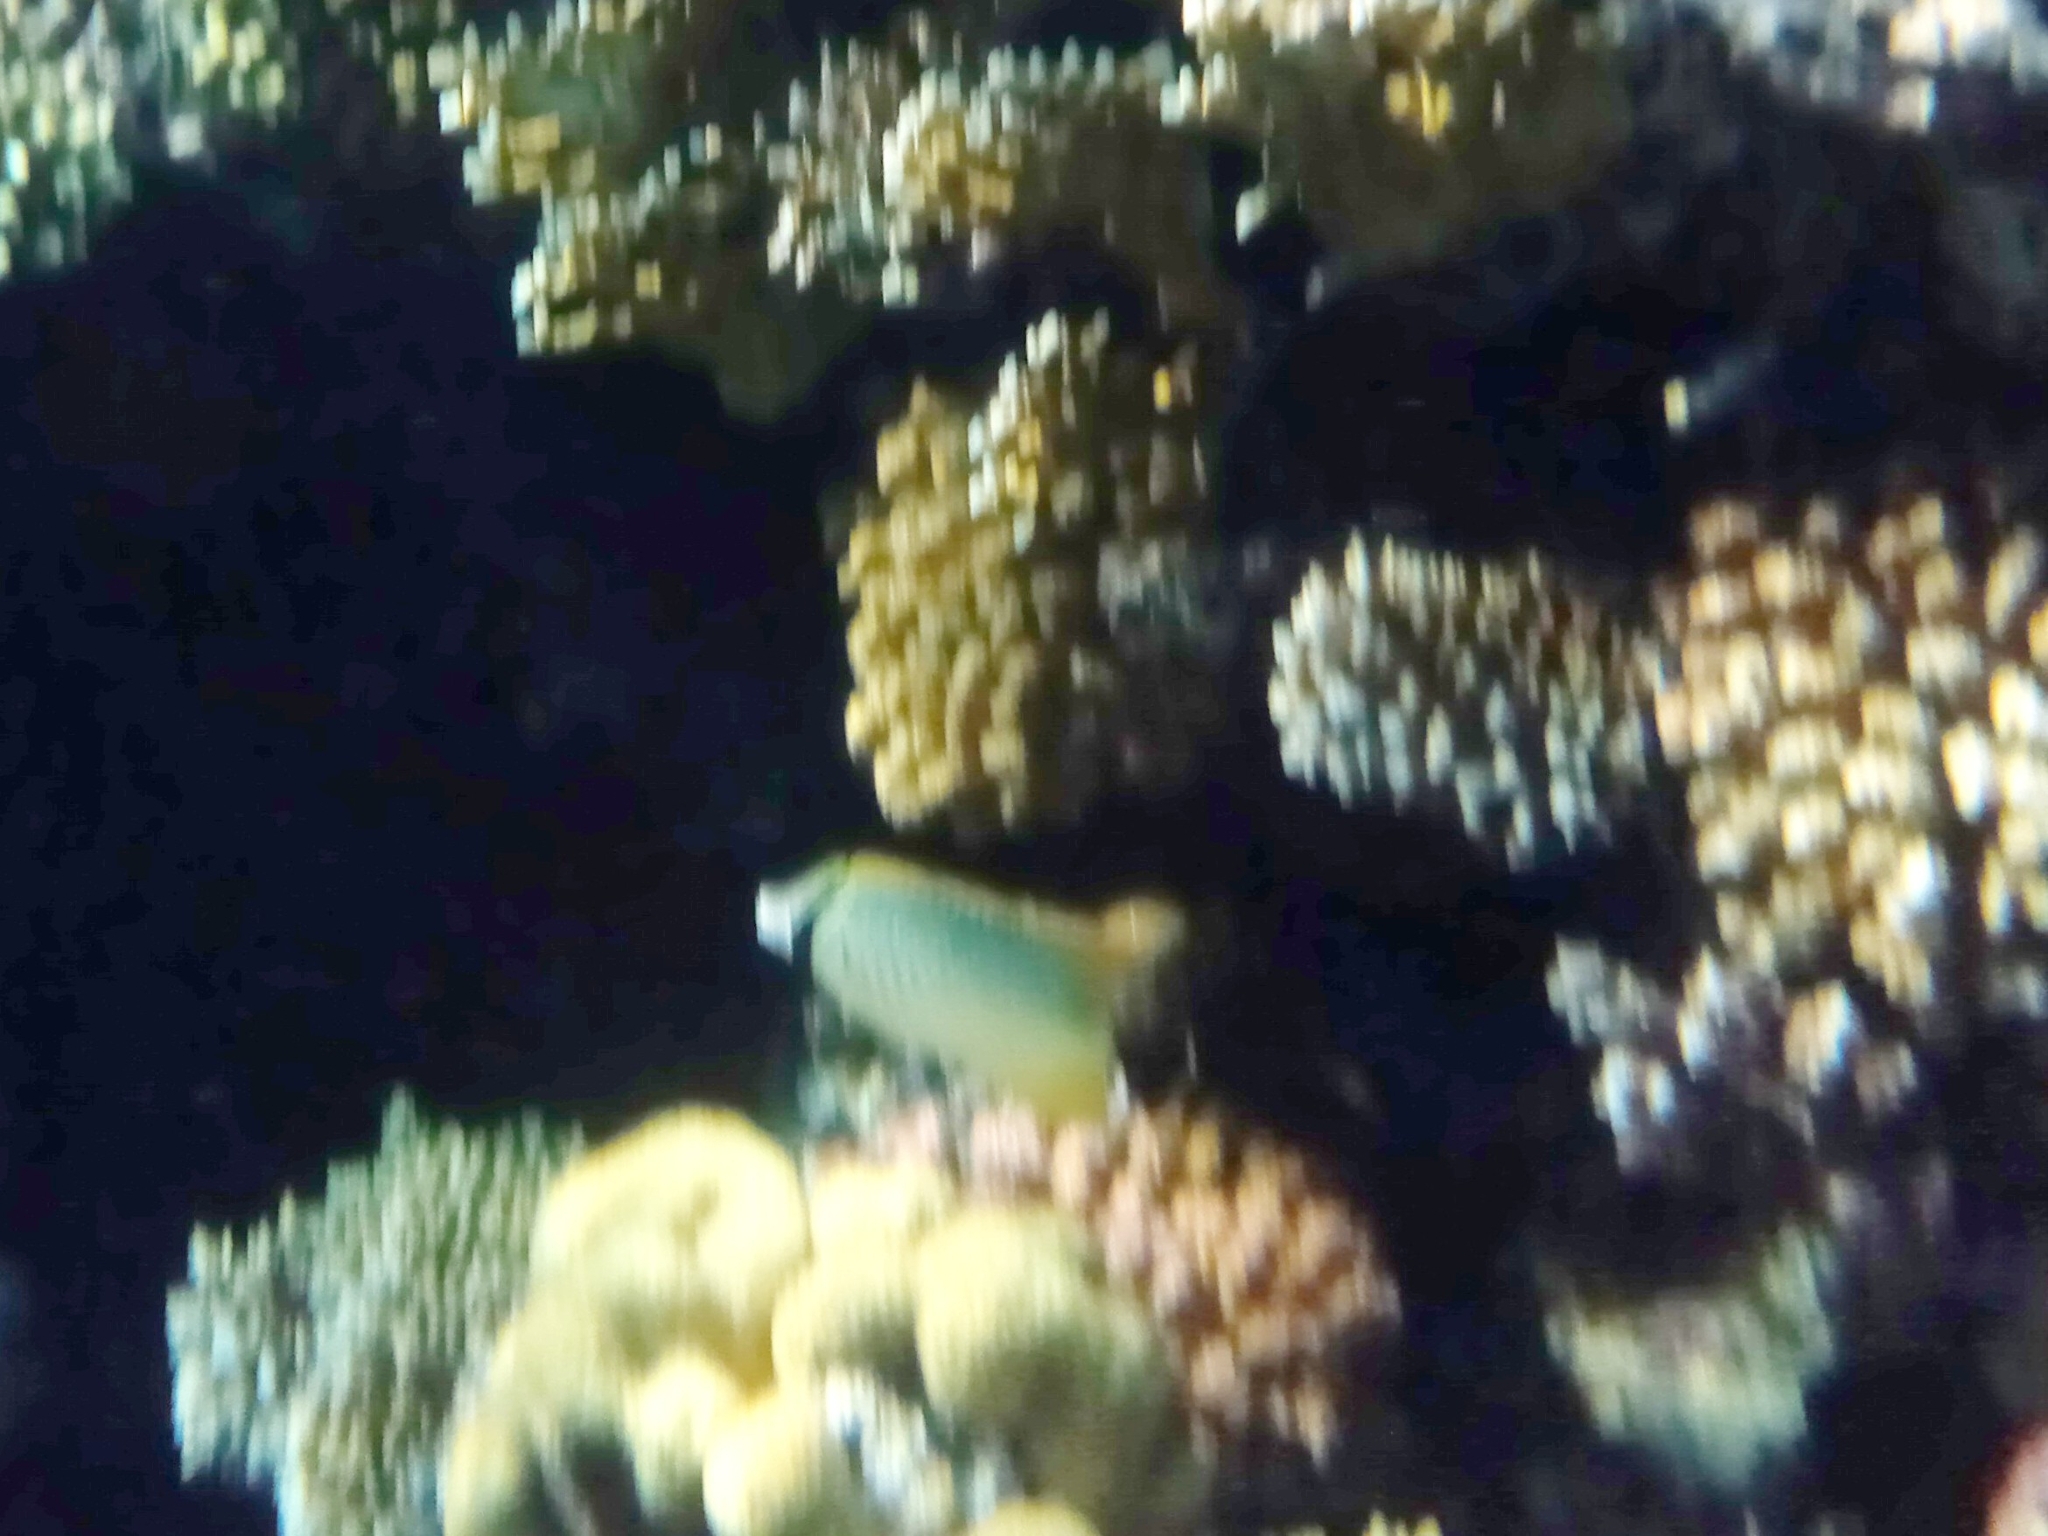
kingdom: Animalia
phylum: Chordata
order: Perciformes
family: Chaetodontidae
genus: Chaetodon
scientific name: Chaetodon trifascialis
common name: Chevroned butterflyfish
